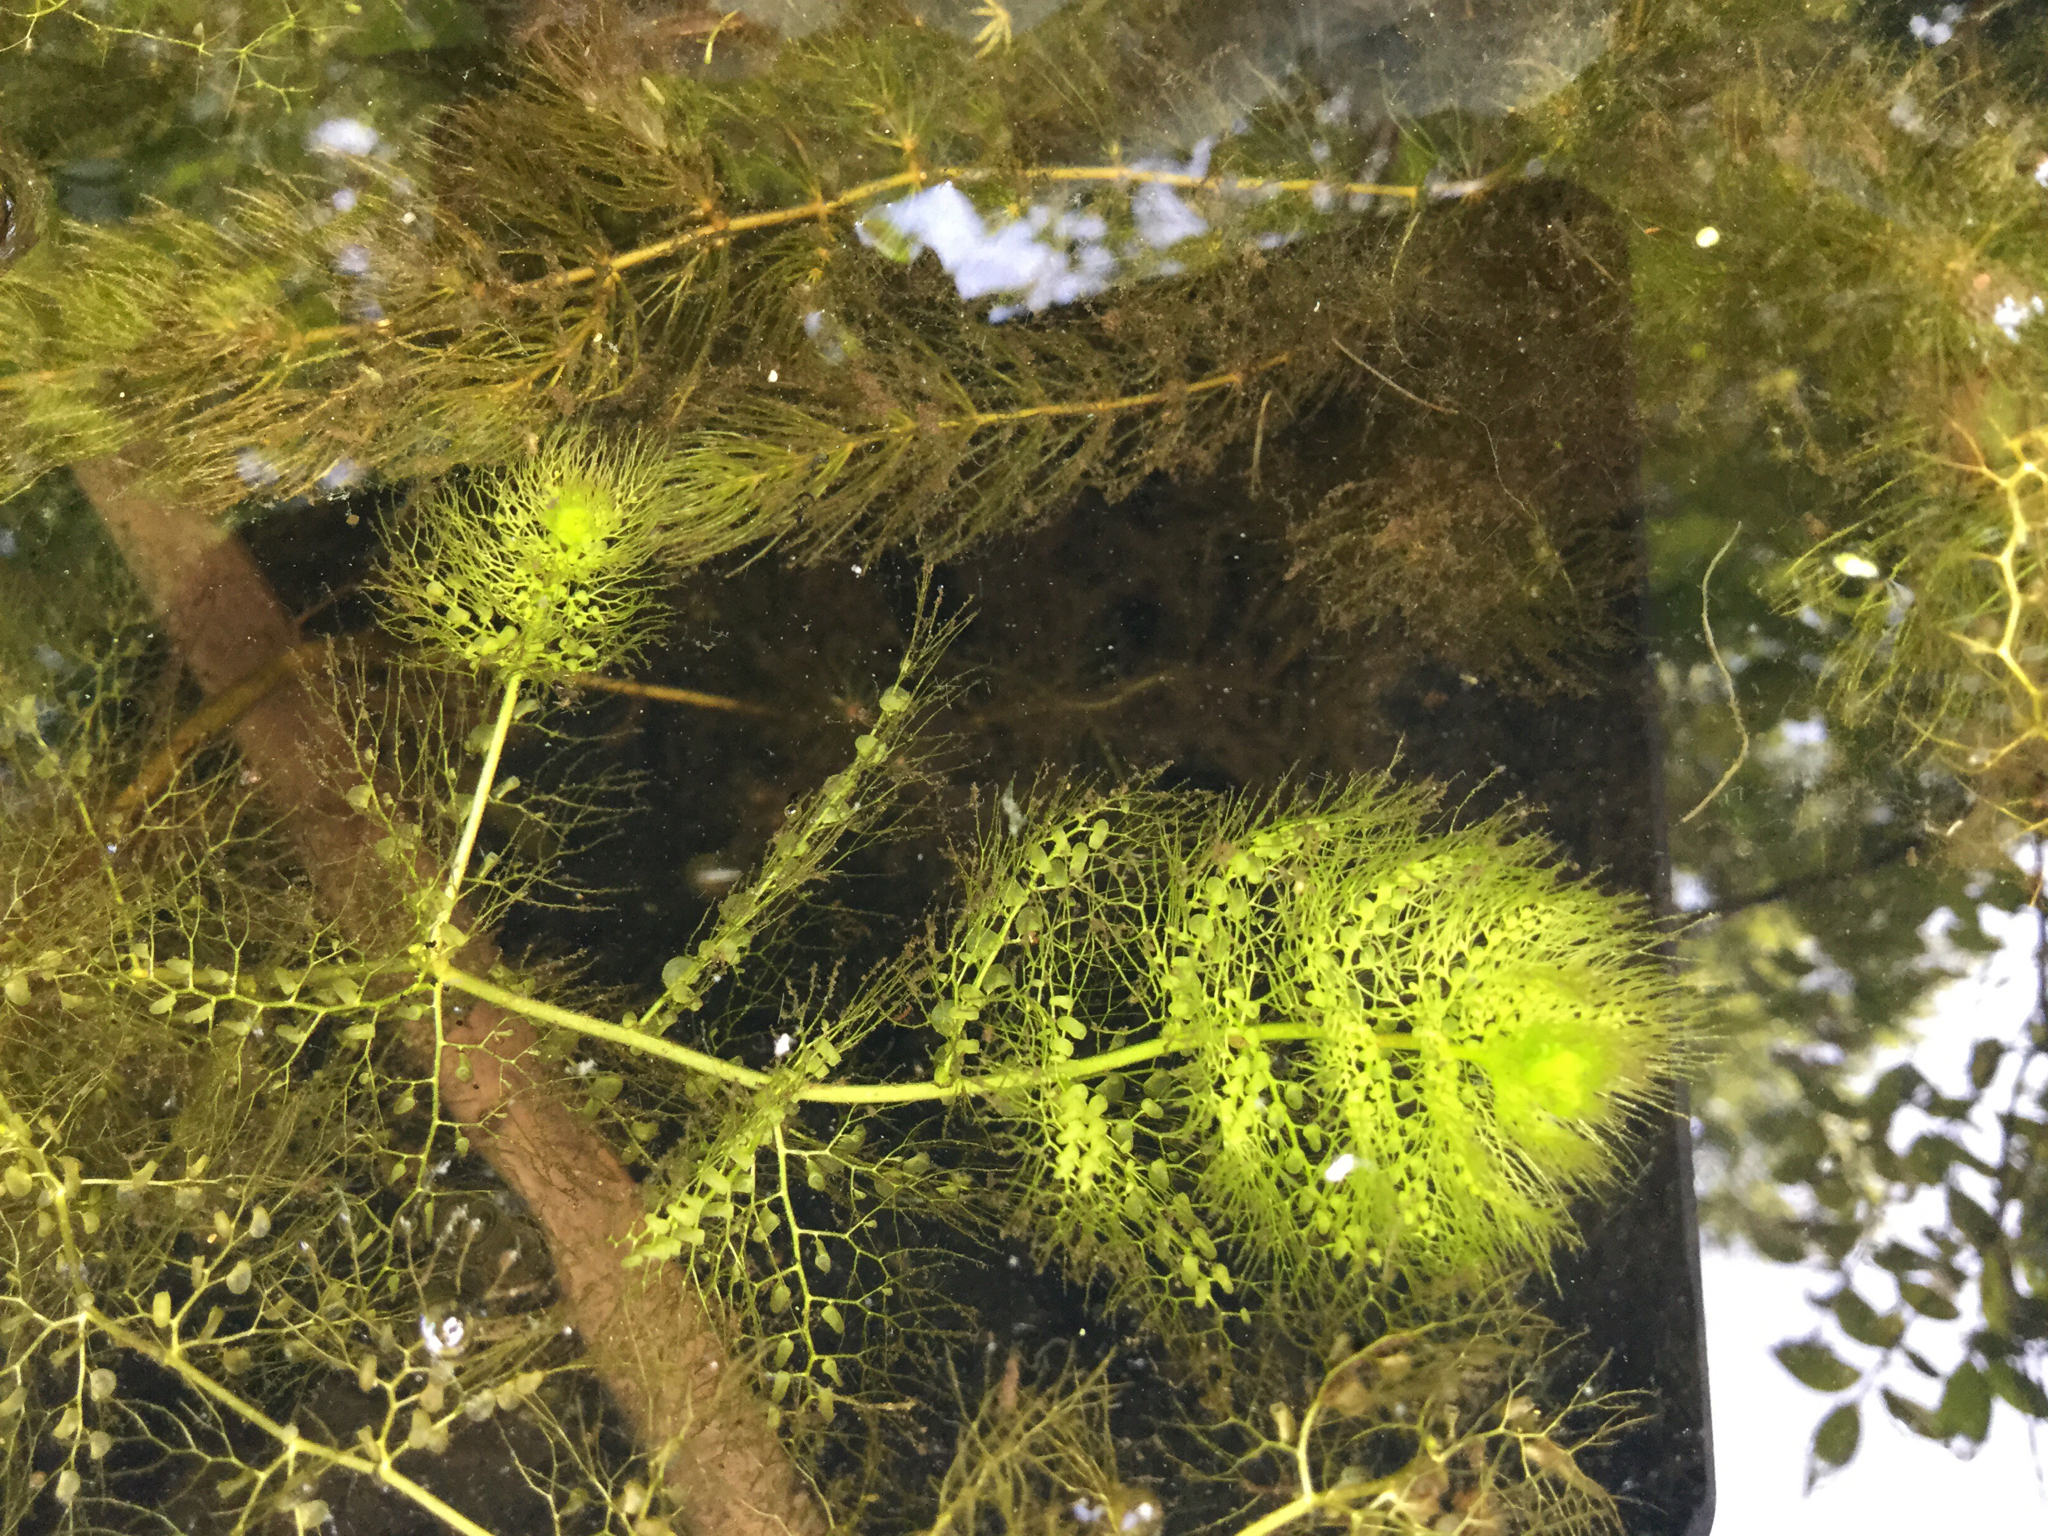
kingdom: Plantae
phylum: Tracheophyta
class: Magnoliopsida
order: Lamiales
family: Lentibulariaceae
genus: Utricularia
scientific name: Utricularia macrorhiza
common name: Common bladderwort
